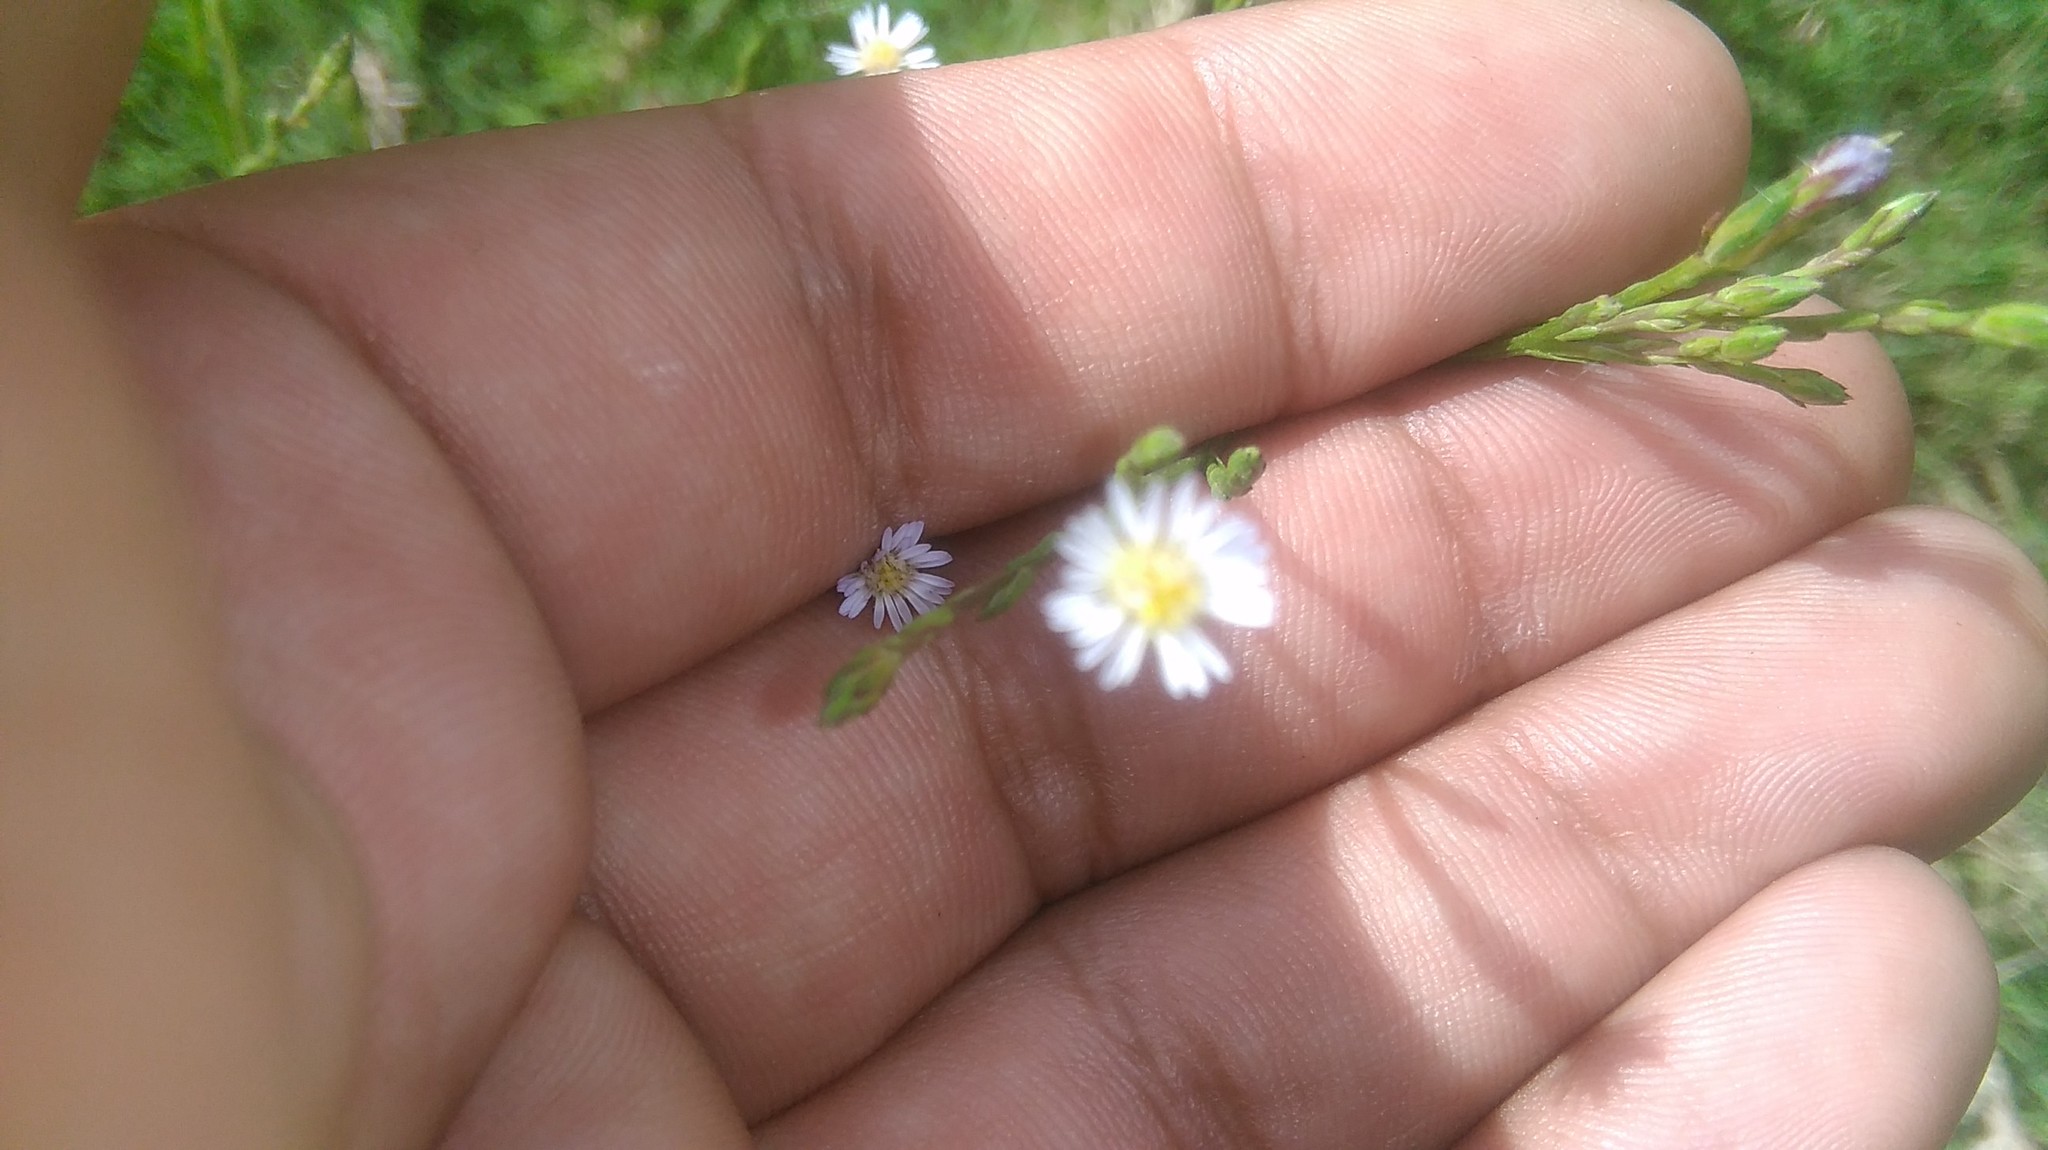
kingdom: Plantae
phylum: Tracheophyta
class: Magnoliopsida
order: Asterales
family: Asteraceae
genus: Symphyotrichum
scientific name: Symphyotrichum squamatum
